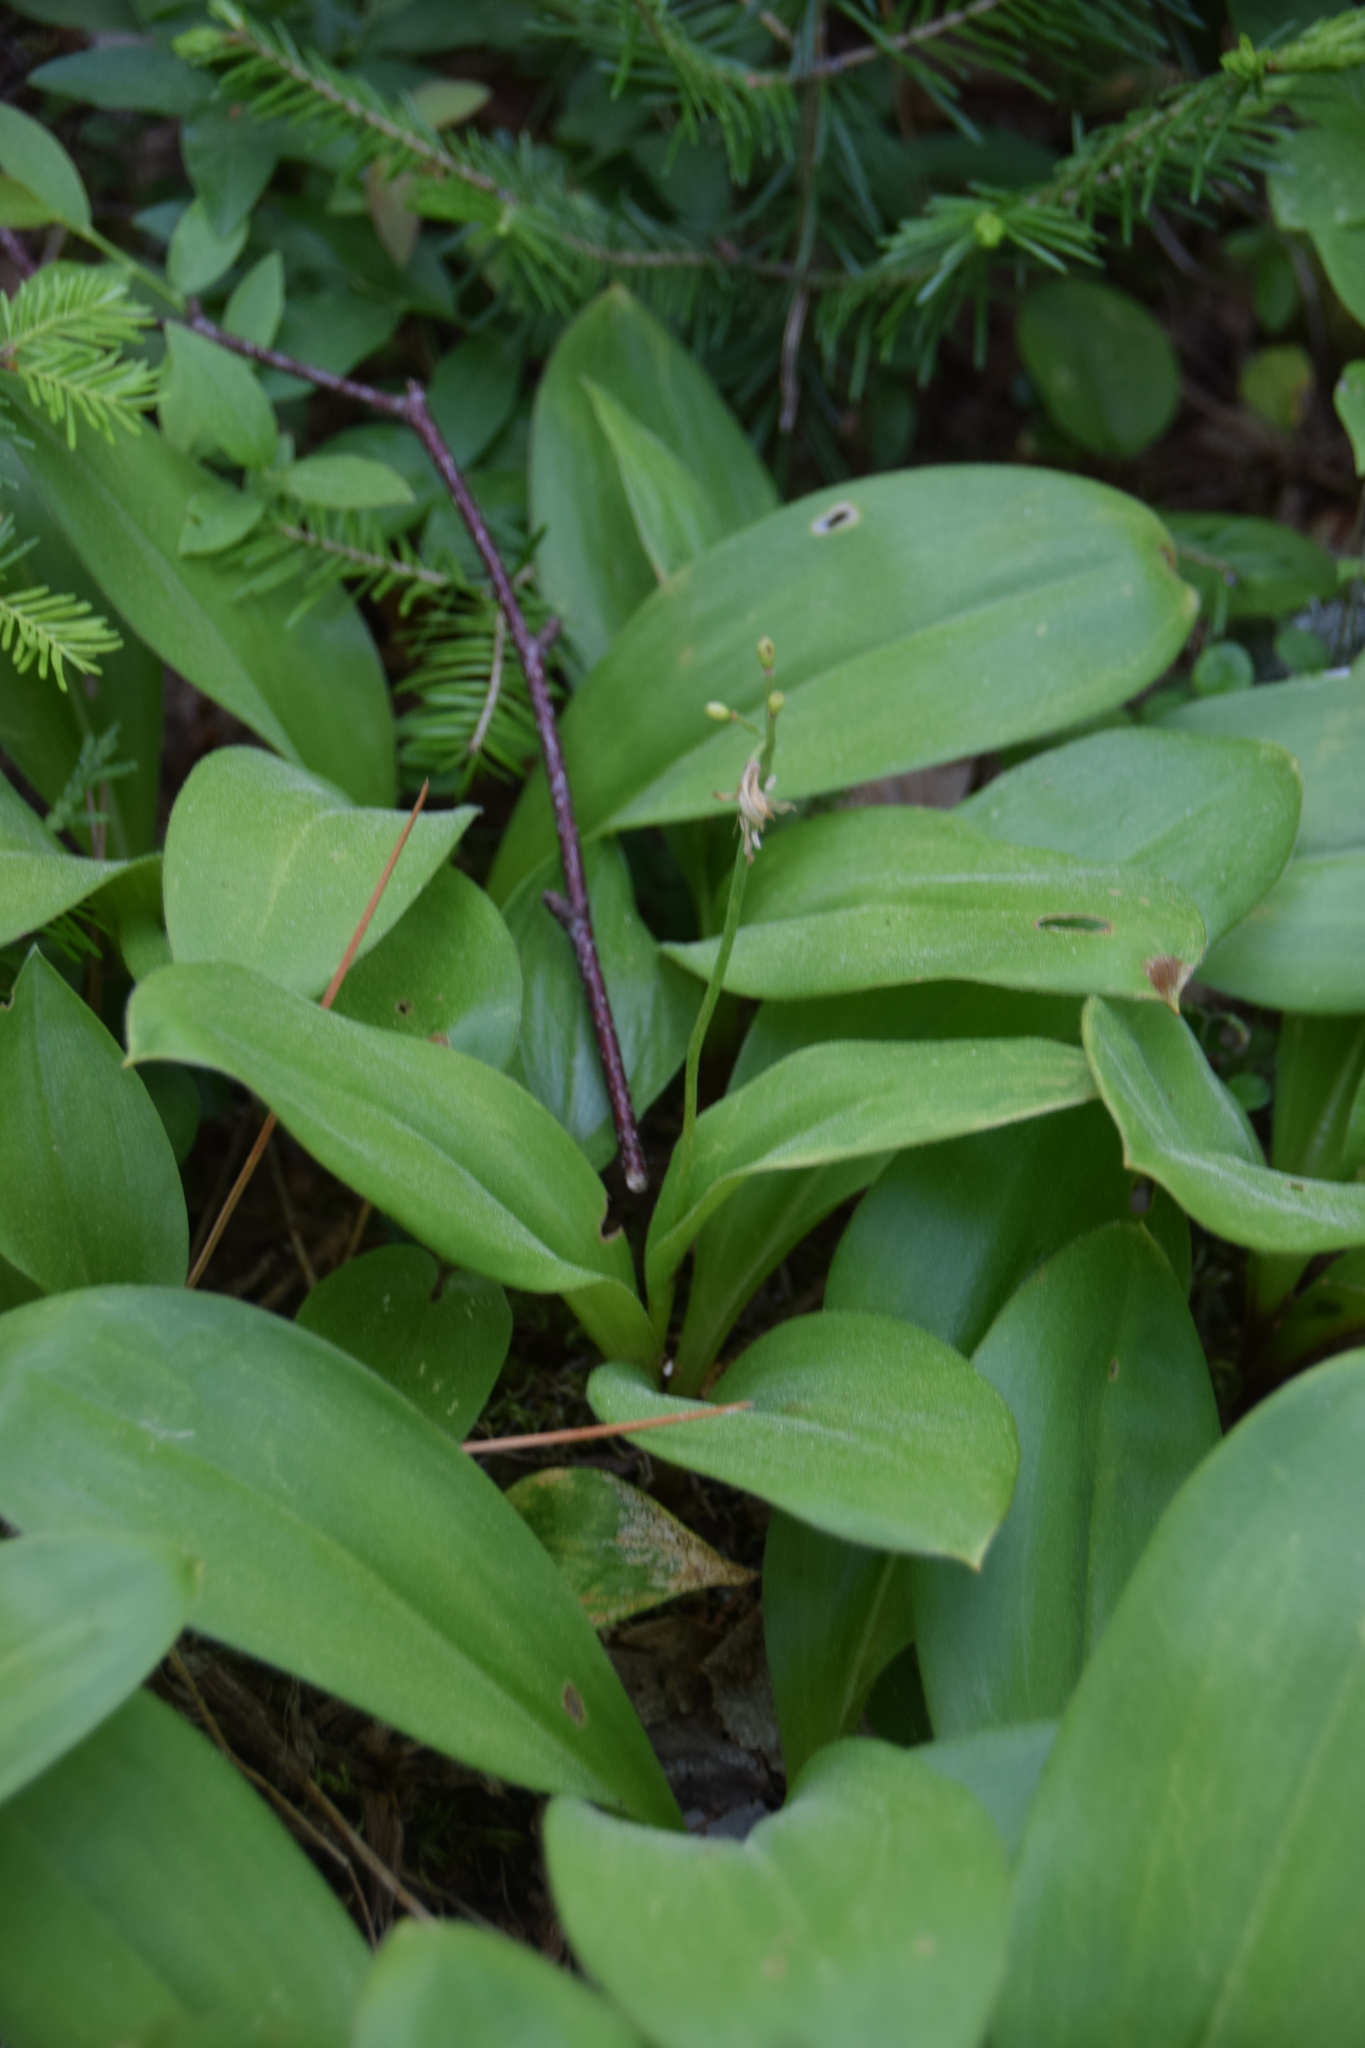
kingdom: Plantae
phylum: Tracheophyta
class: Liliopsida
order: Liliales
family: Liliaceae
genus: Clintonia
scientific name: Clintonia borealis
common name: Yellow clintonia
